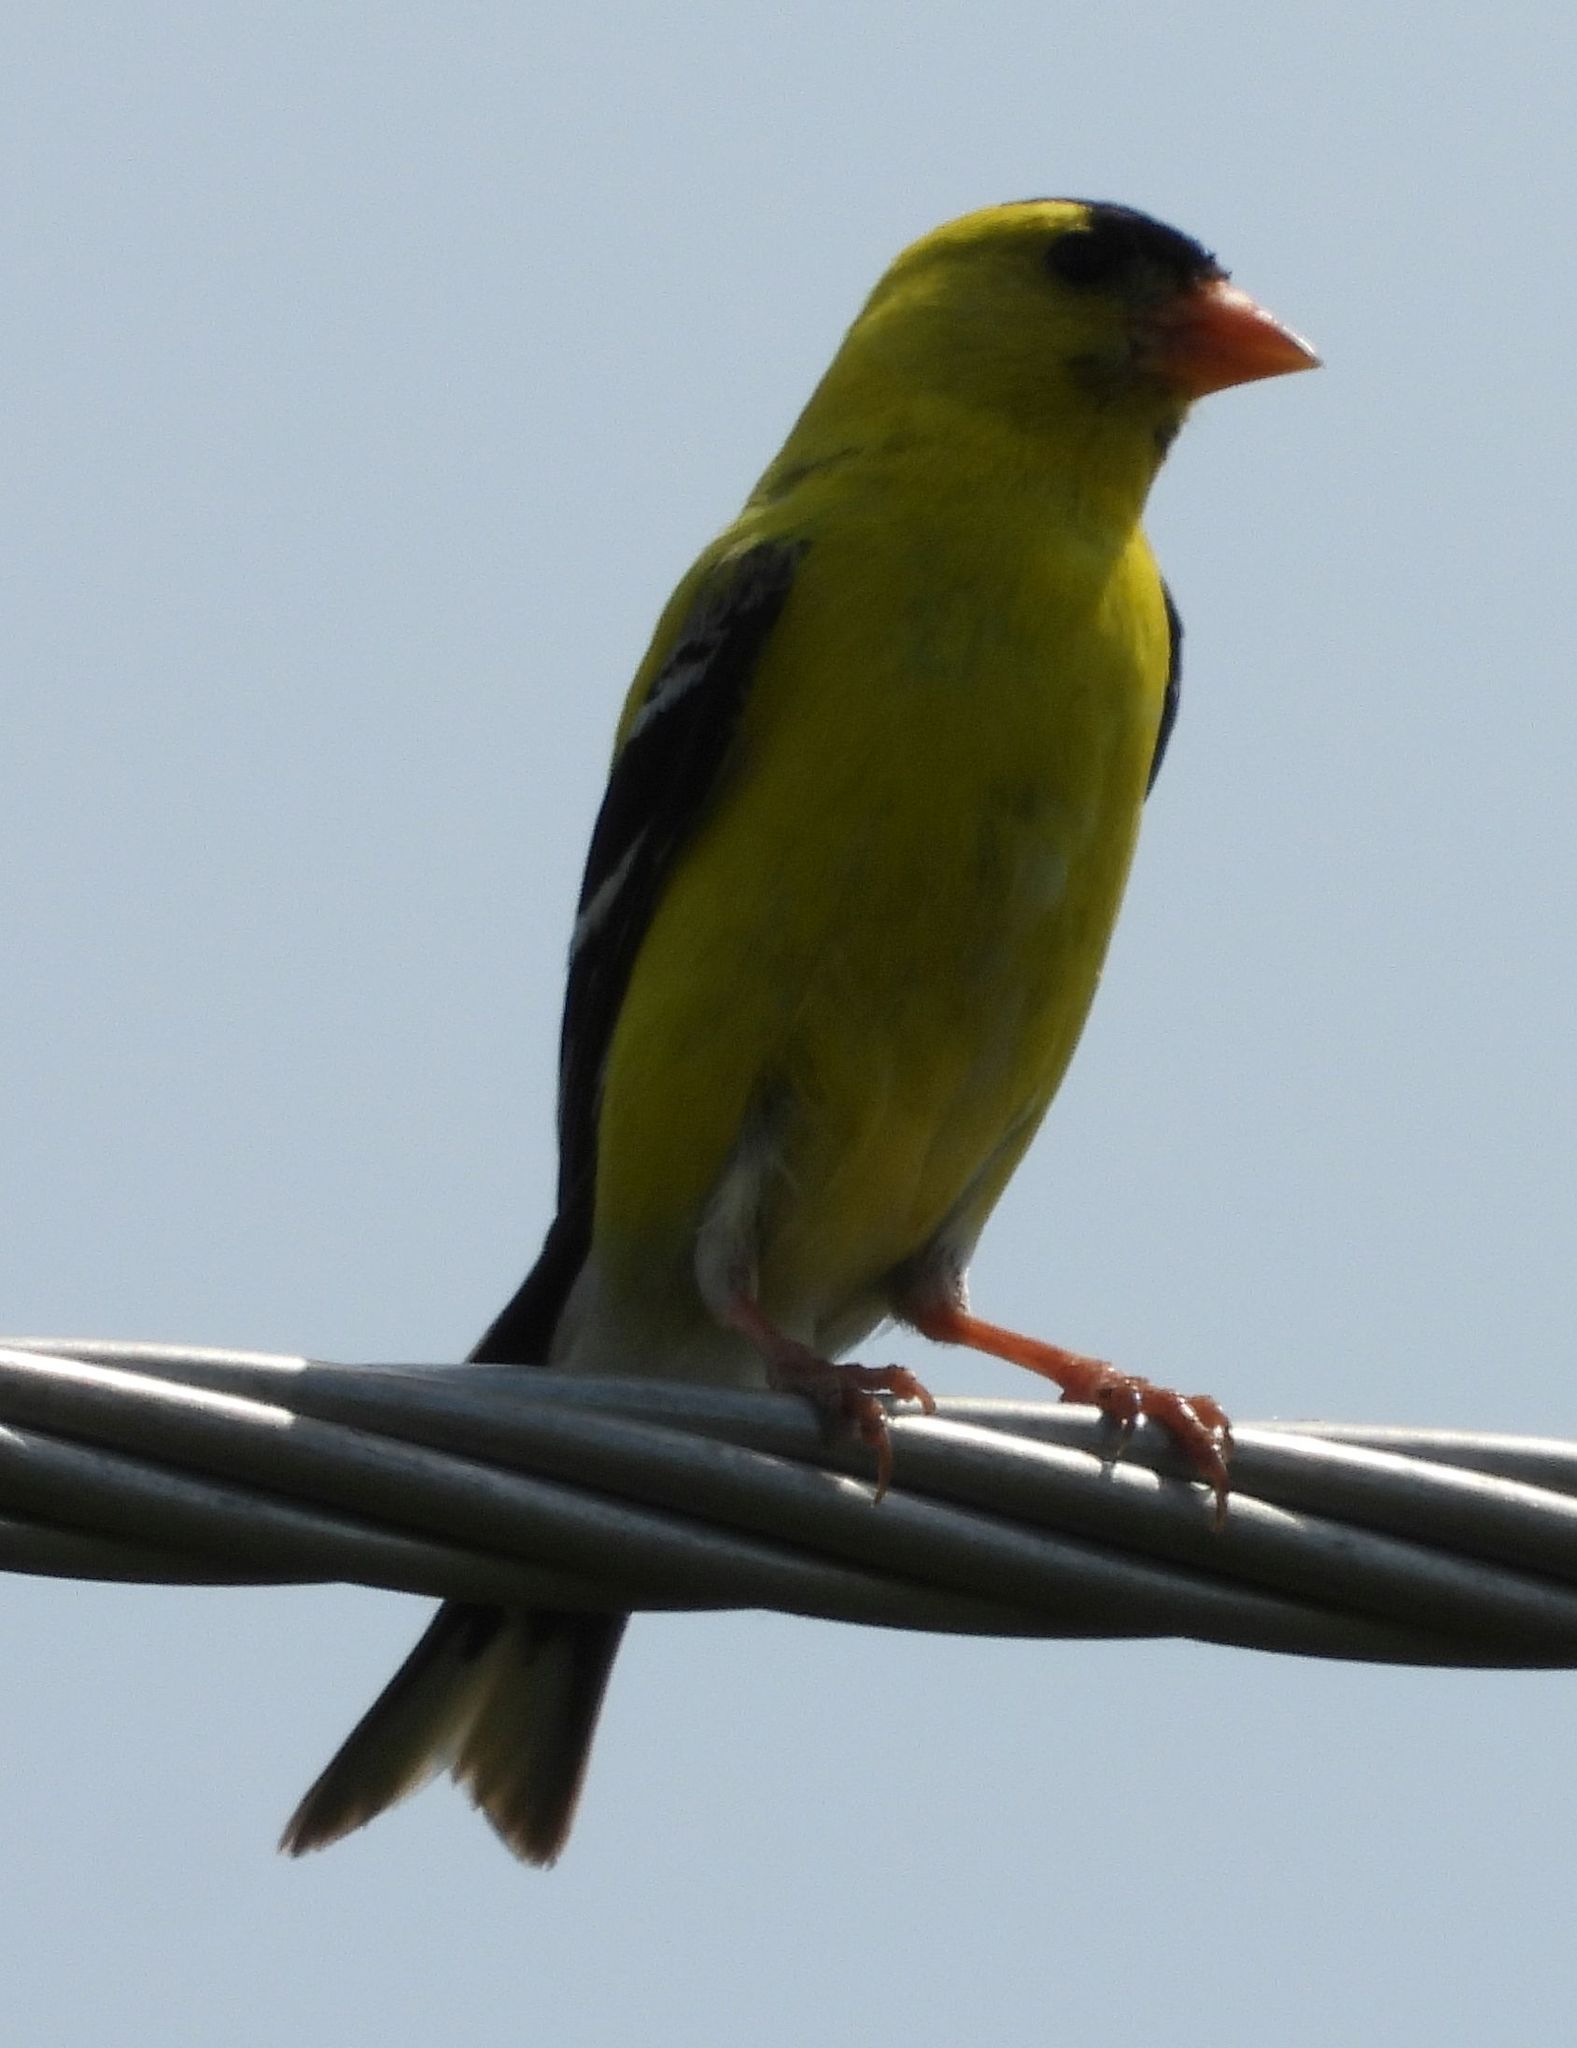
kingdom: Animalia
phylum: Chordata
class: Aves
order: Passeriformes
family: Fringillidae
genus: Spinus
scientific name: Spinus tristis
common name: American goldfinch
